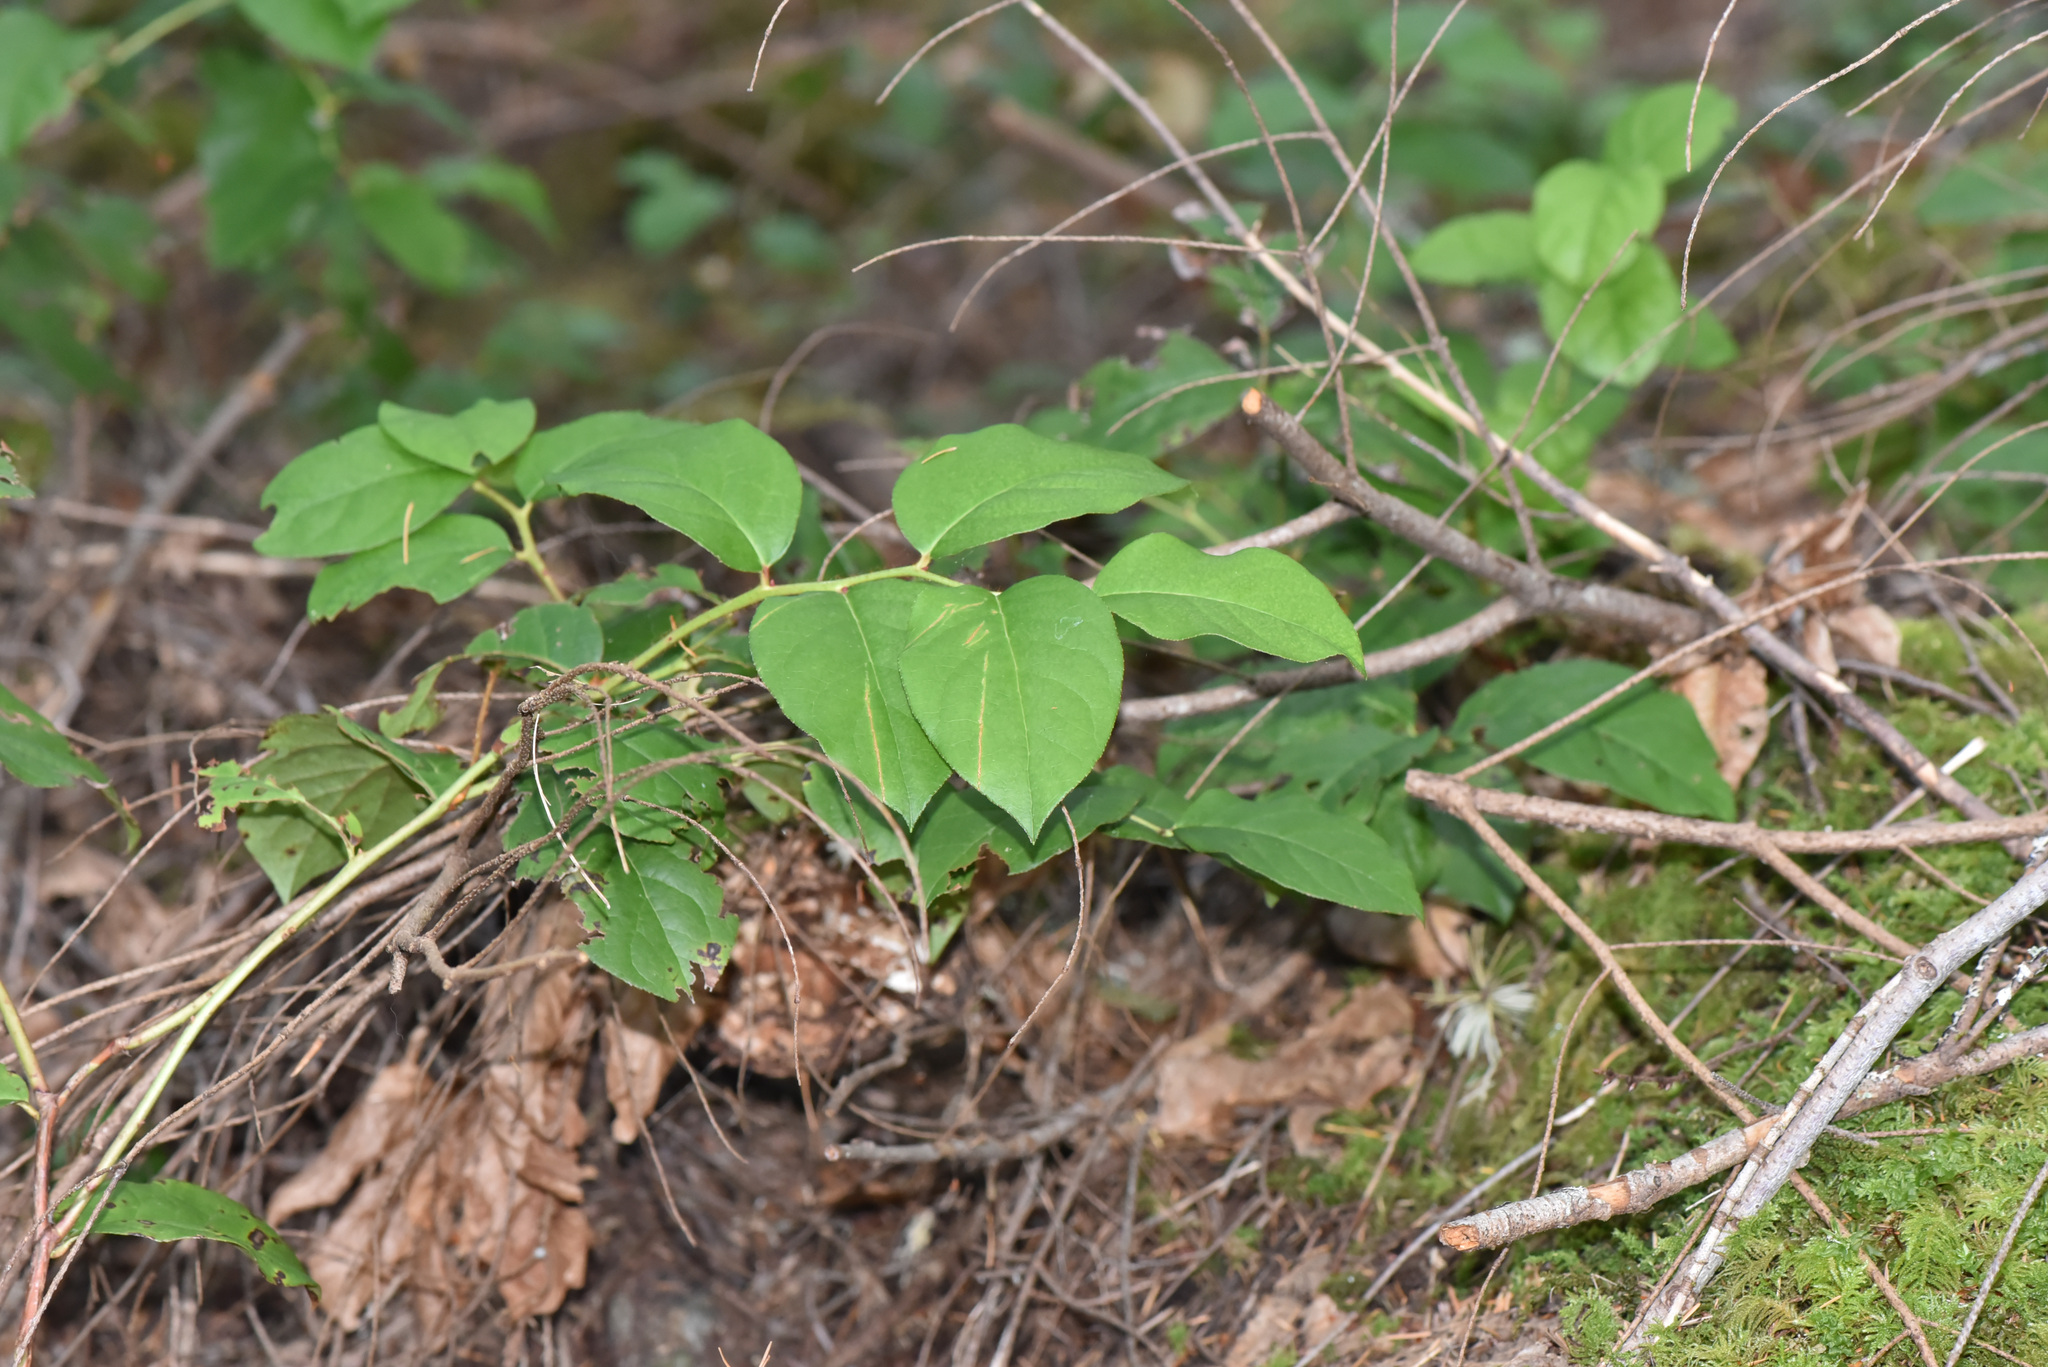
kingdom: Plantae
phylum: Tracheophyta
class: Magnoliopsida
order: Ericales
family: Ericaceae
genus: Gaultheria
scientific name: Gaultheria shallon
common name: Shallon
